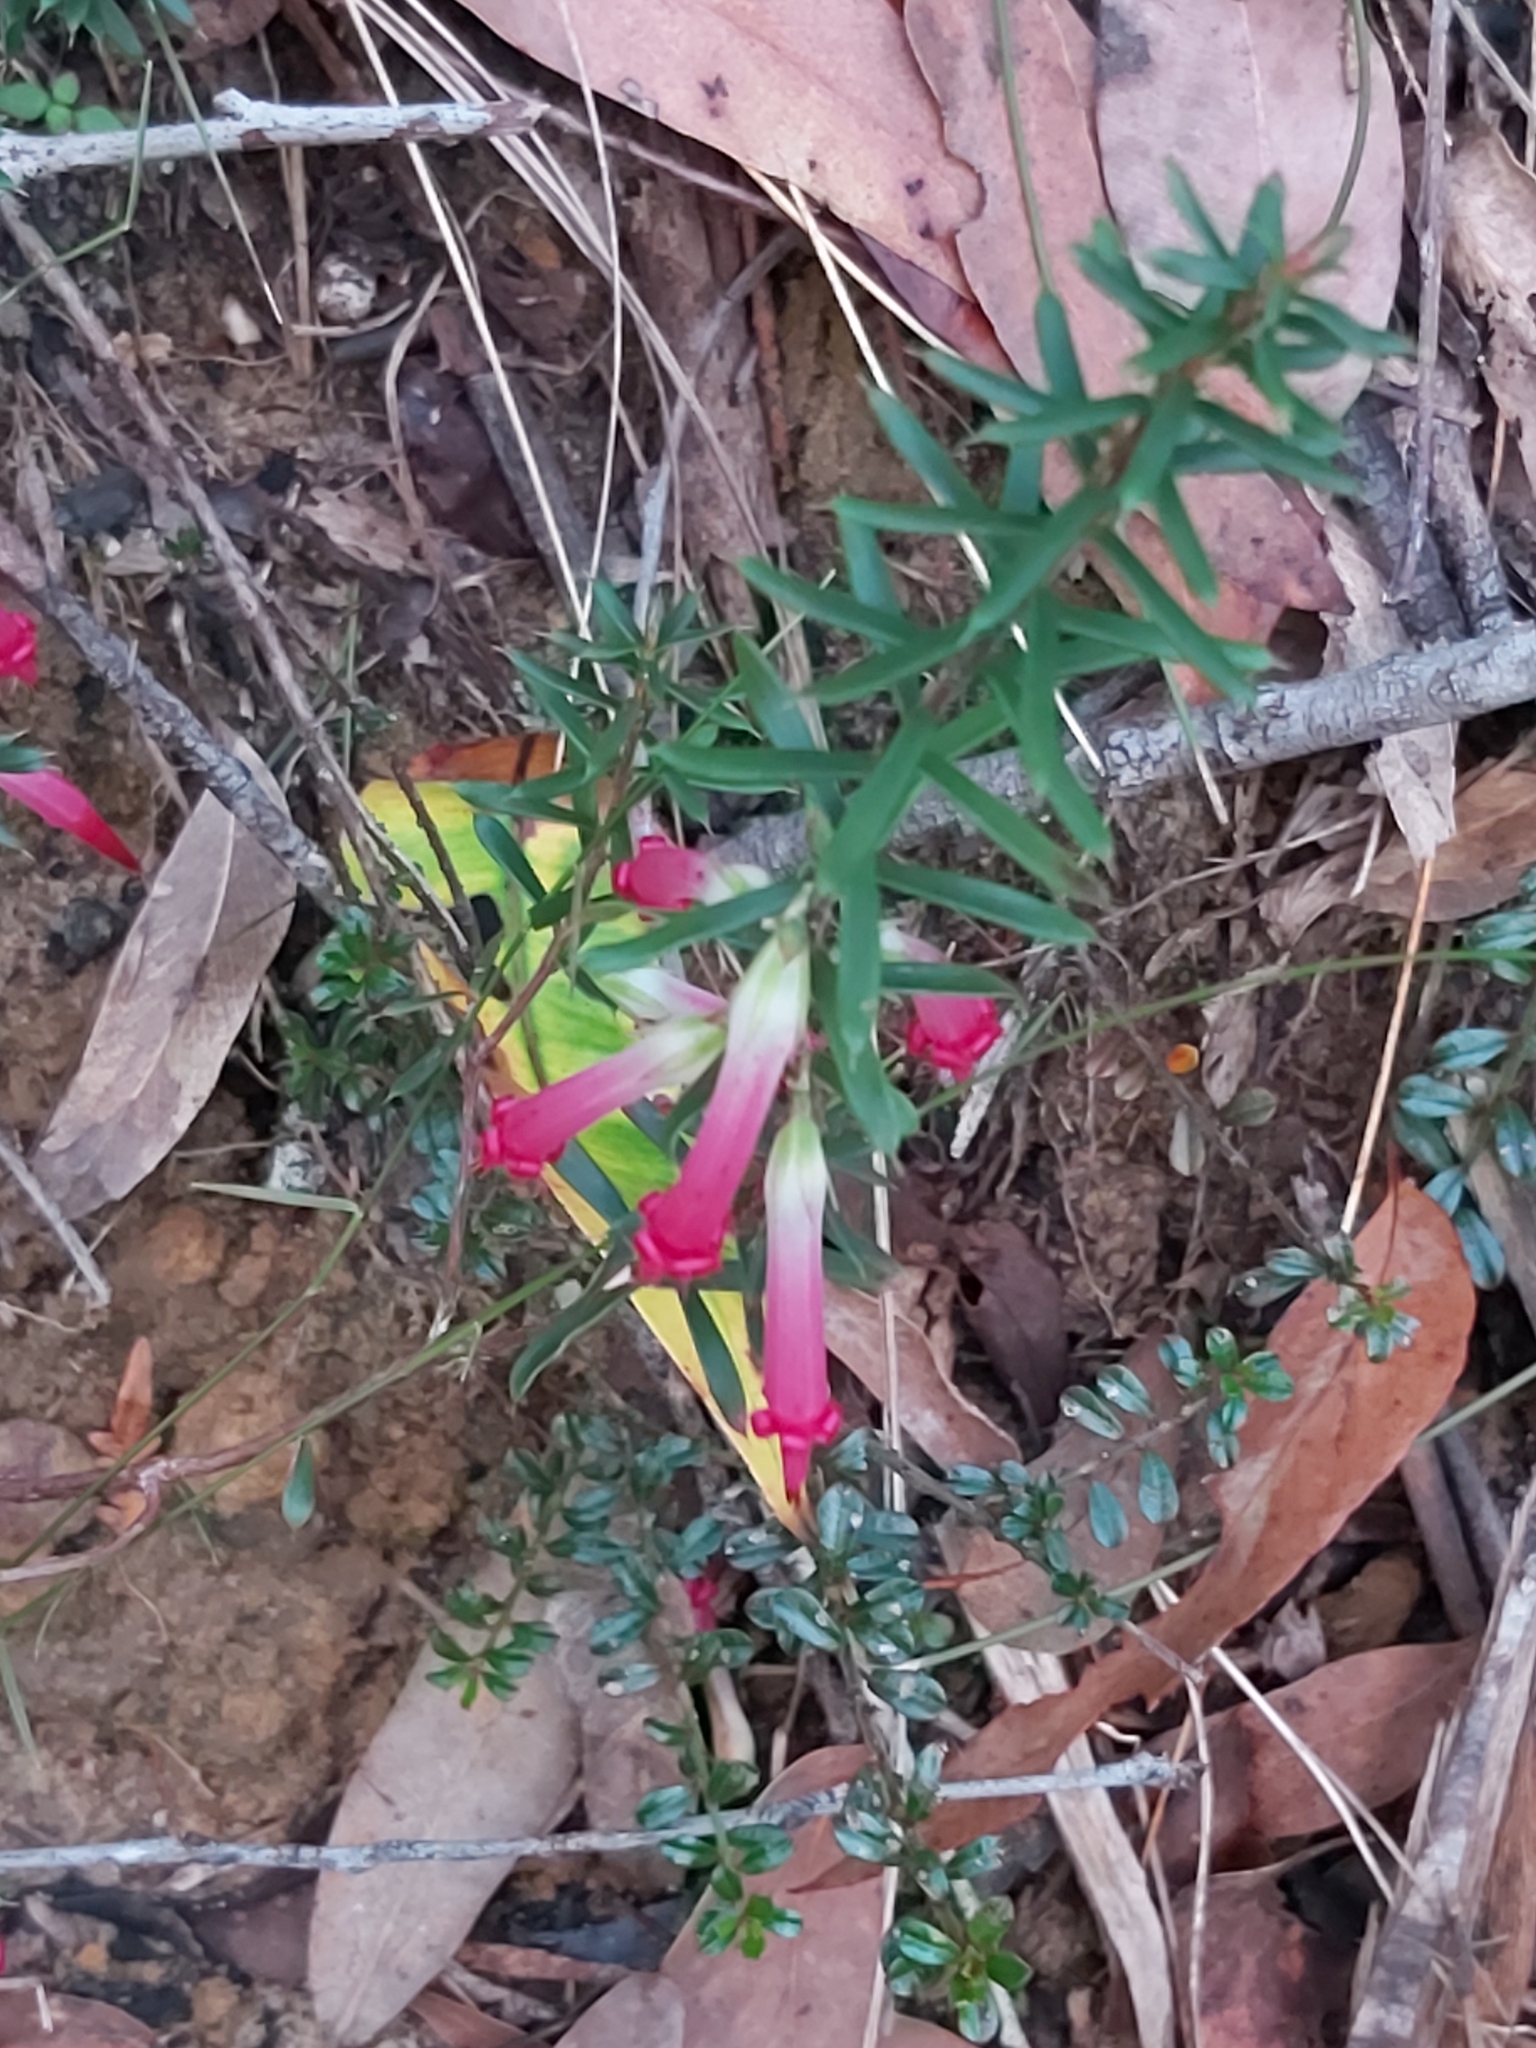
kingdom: Plantae
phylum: Tracheophyta
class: Magnoliopsida
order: Ericales
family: Ericaceae
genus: Styphelia
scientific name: Styphelia tubiflora
